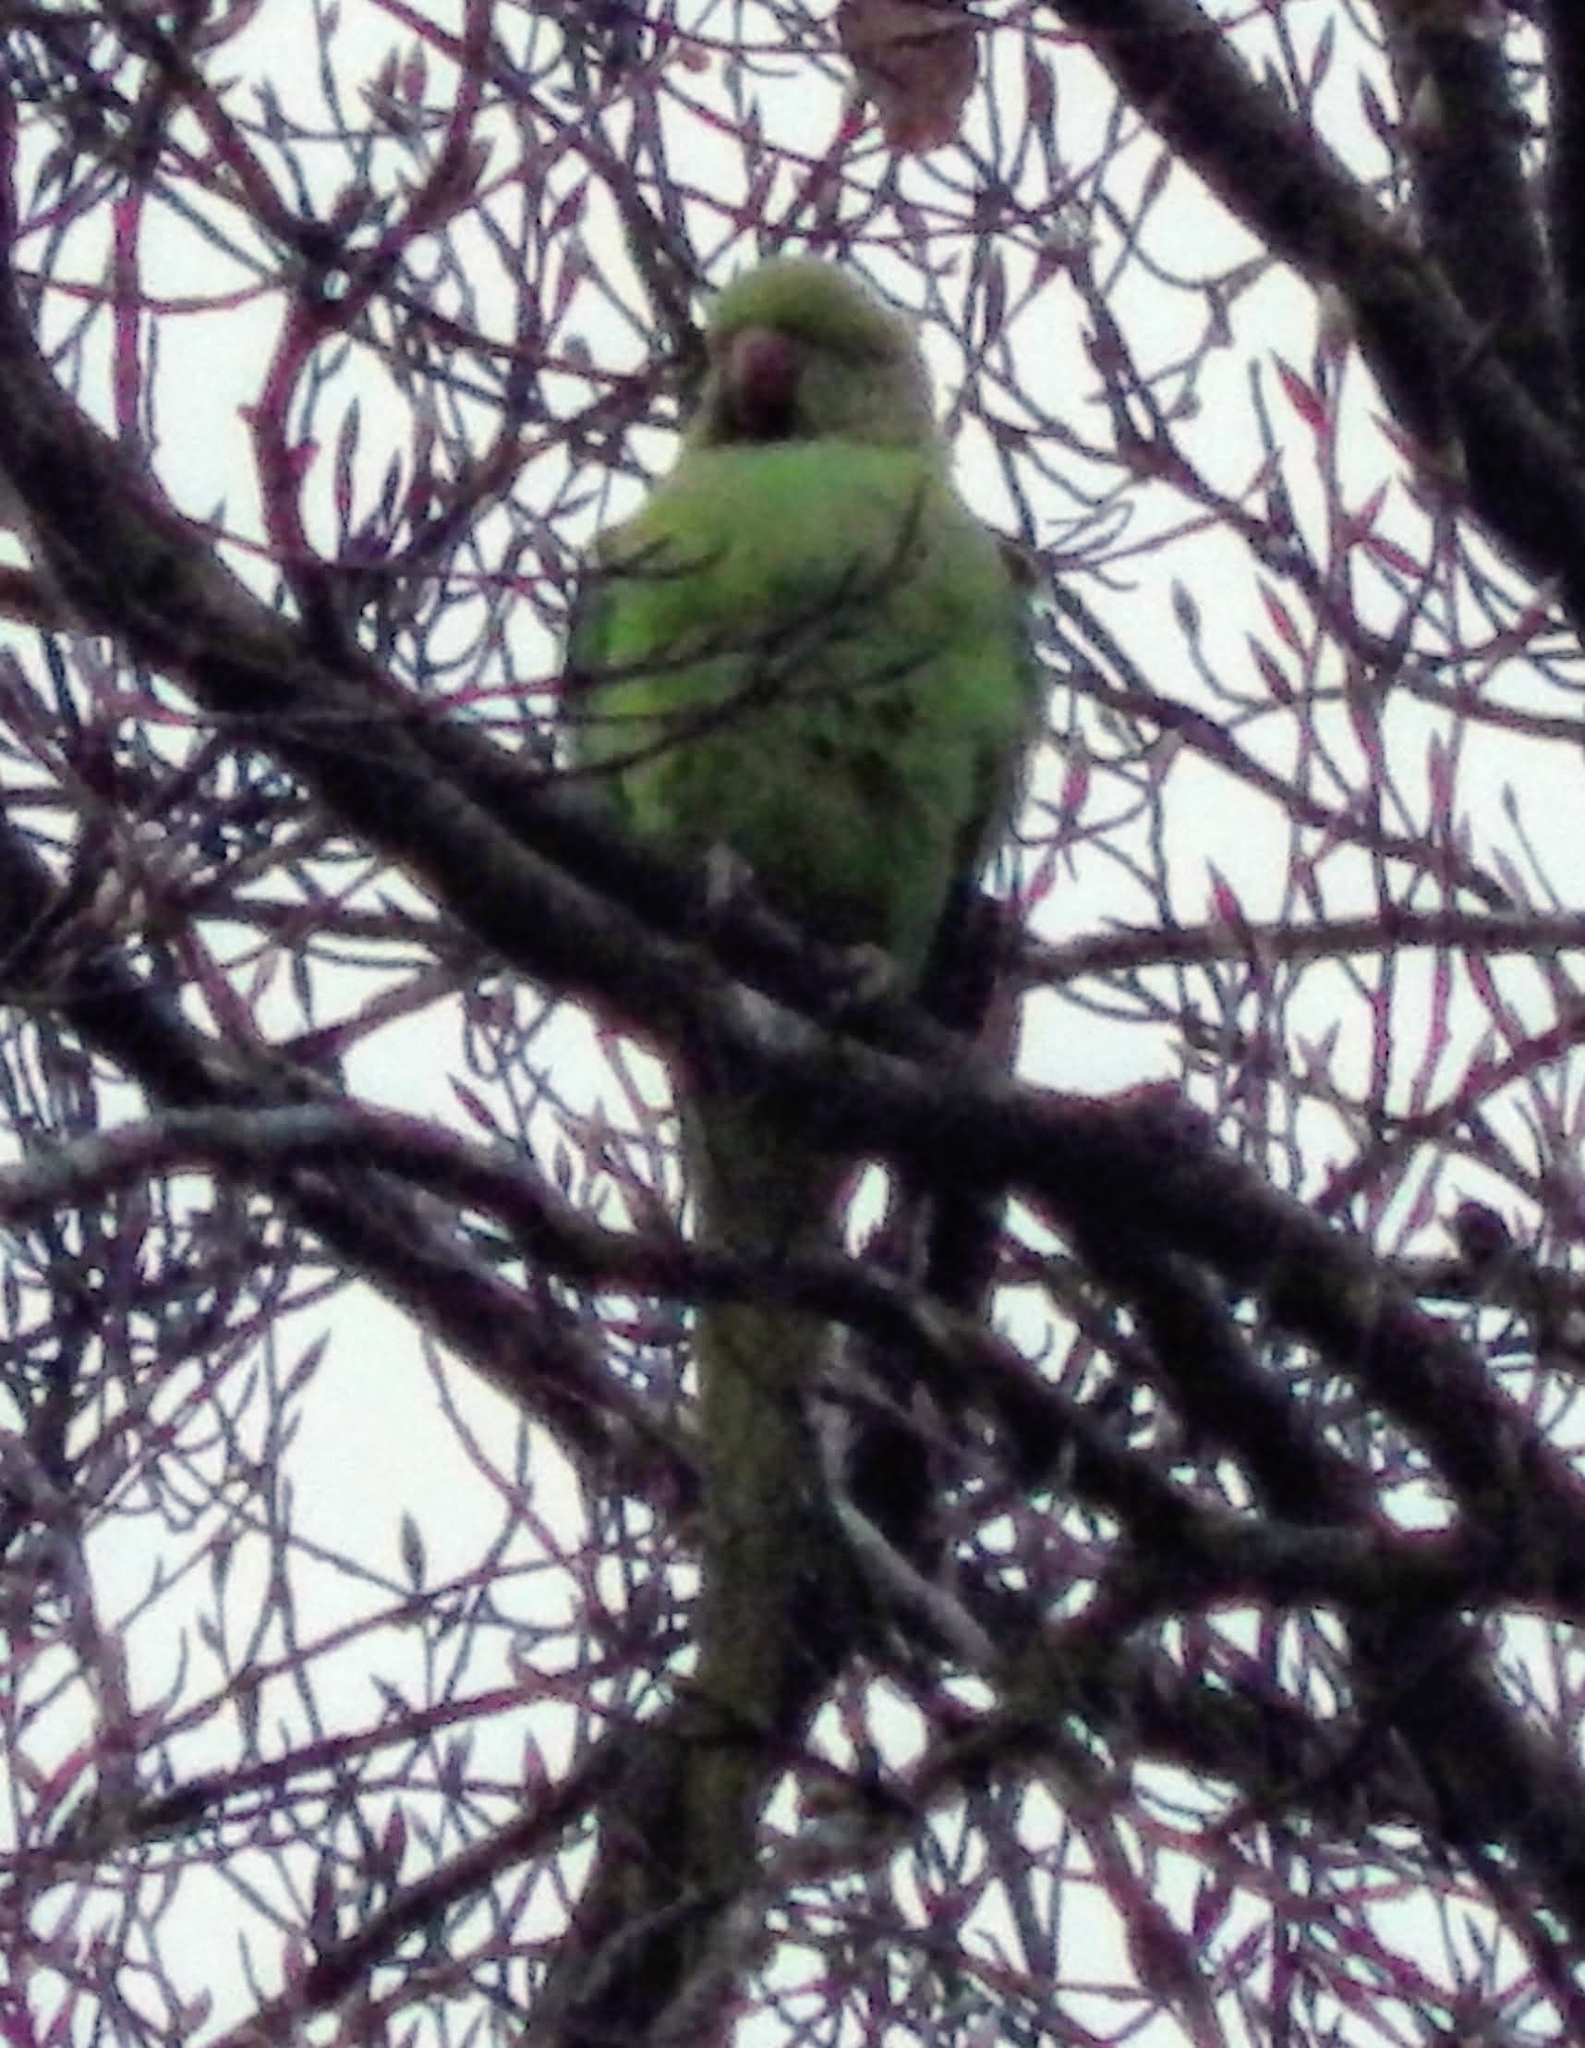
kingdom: Animalia
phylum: Chordata
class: Aves
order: Psittaciformes
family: Psittacidae
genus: Psittacula
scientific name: Psittacula krameri
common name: Rose-ringed parakeet
